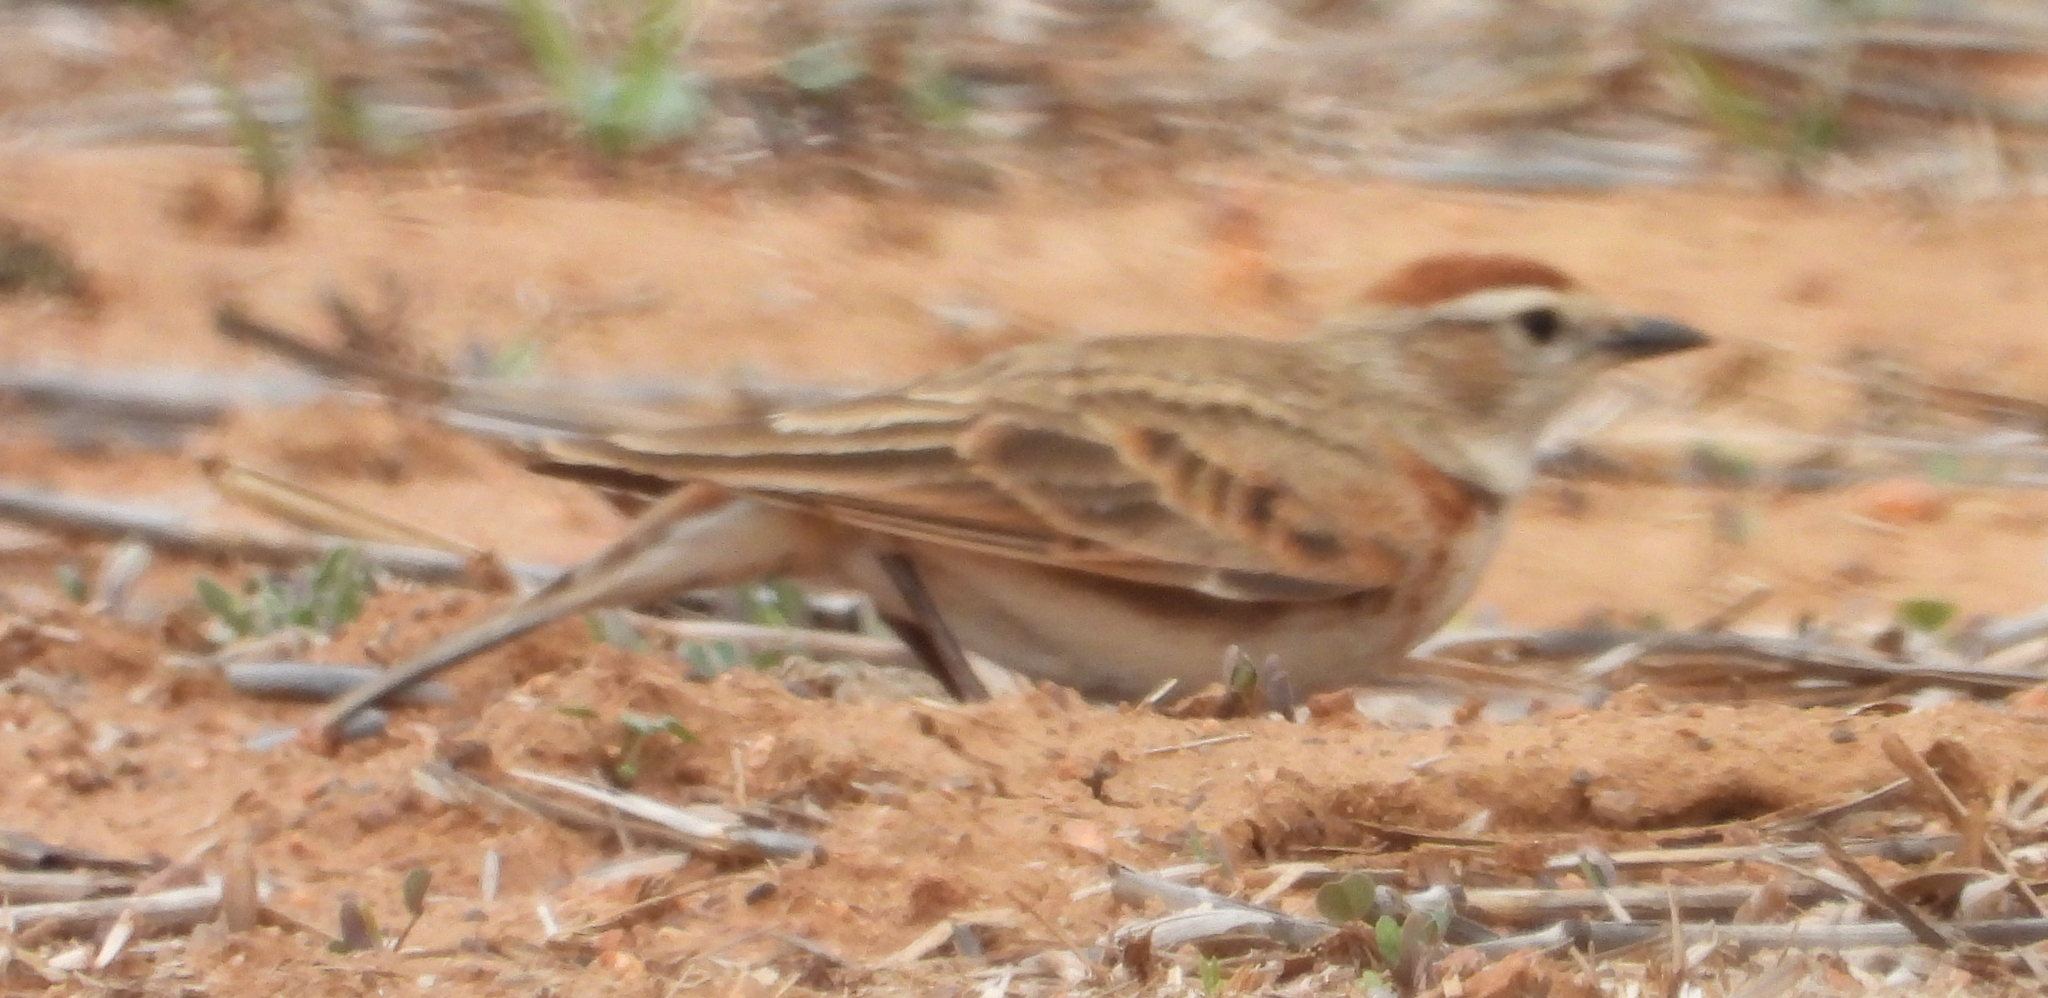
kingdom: Animalia
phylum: Chordata
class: Aves
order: Passeriformes
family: Alaudidae
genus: Calandrella
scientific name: Calandrella cinerea
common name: Red-capped lark
